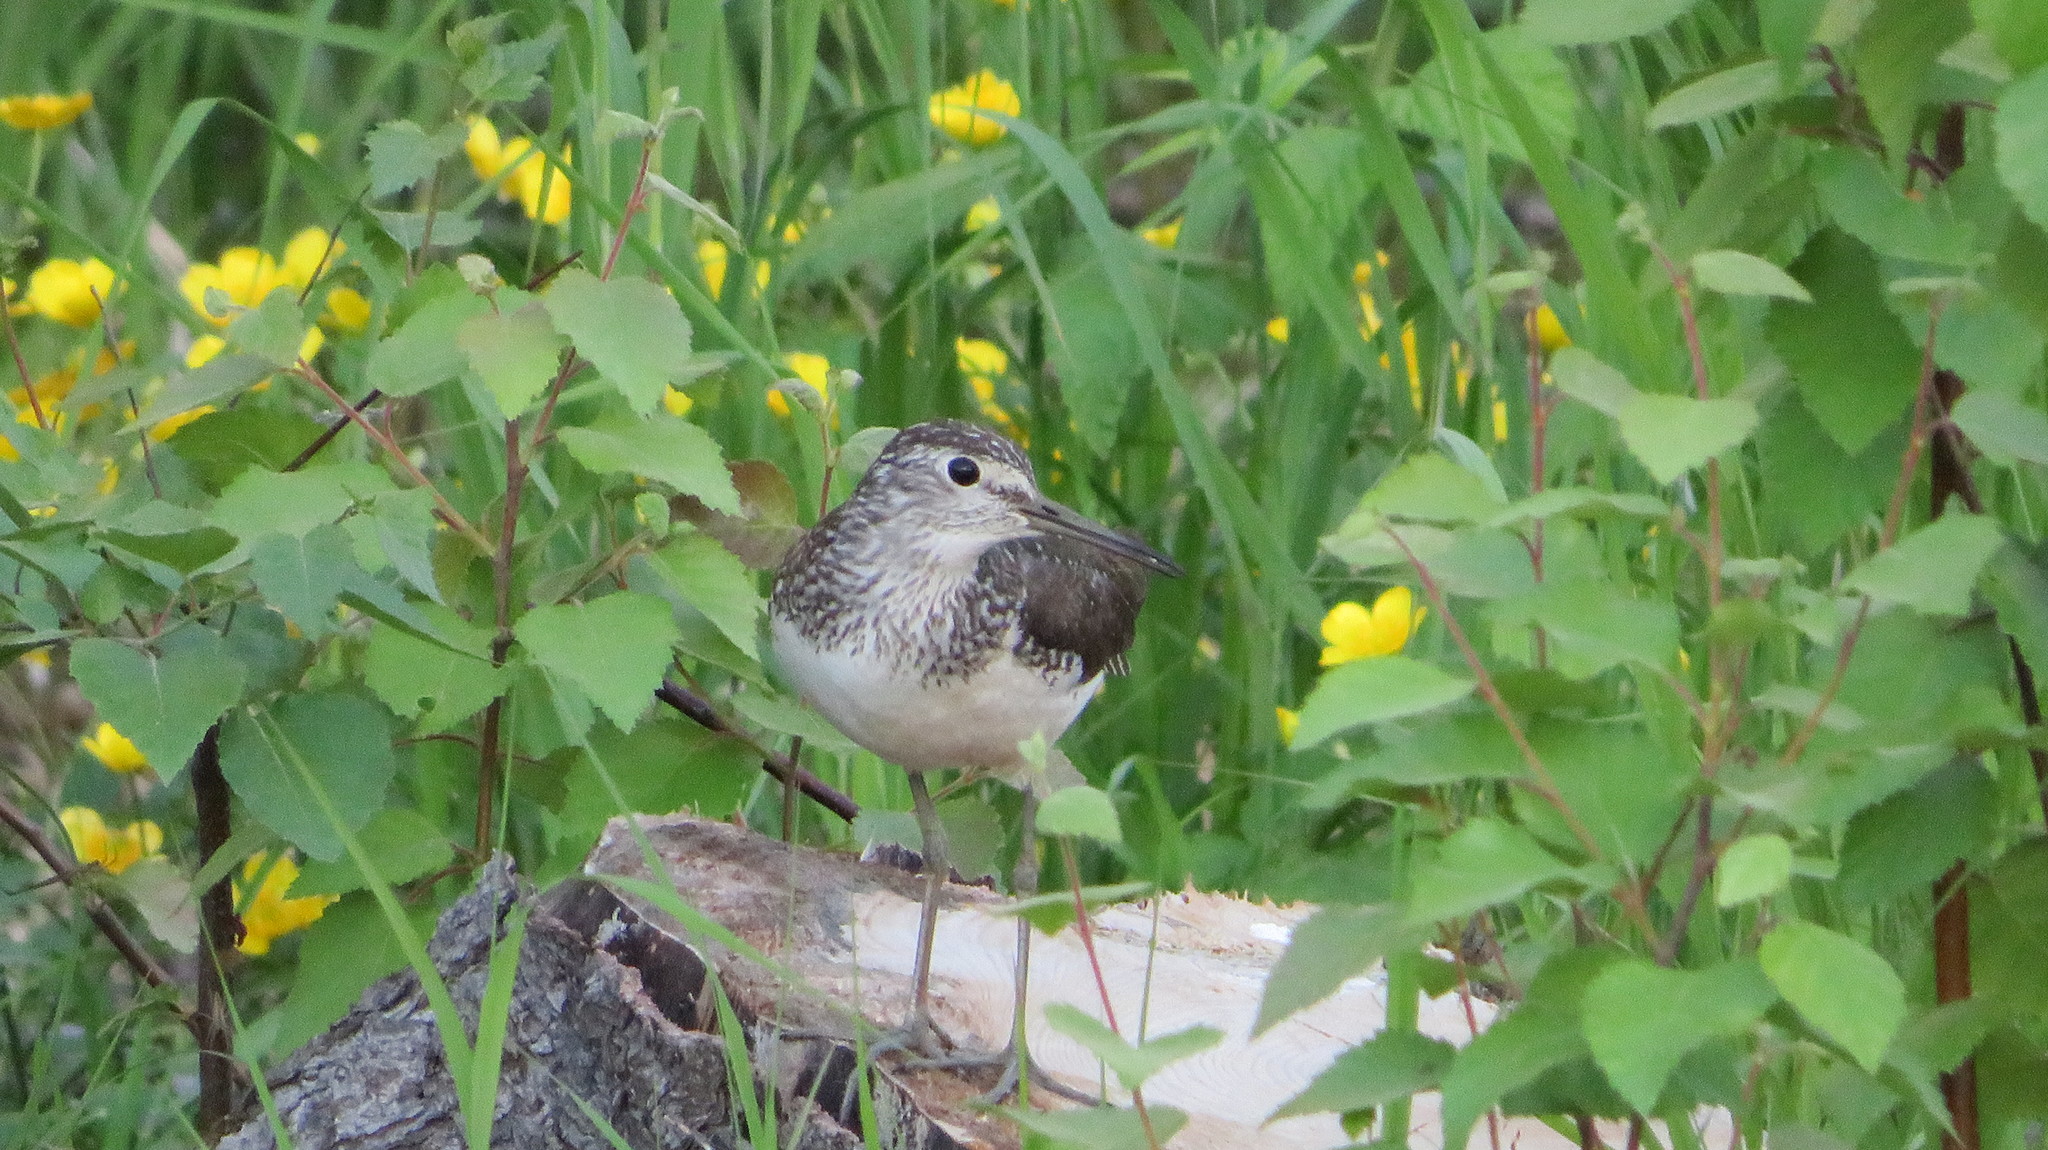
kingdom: Animalia
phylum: Chordata
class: Aves
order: Charadriiformes
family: Scolopacidae
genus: Tringa
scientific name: Tringa ochropus
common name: Green sandpiper
